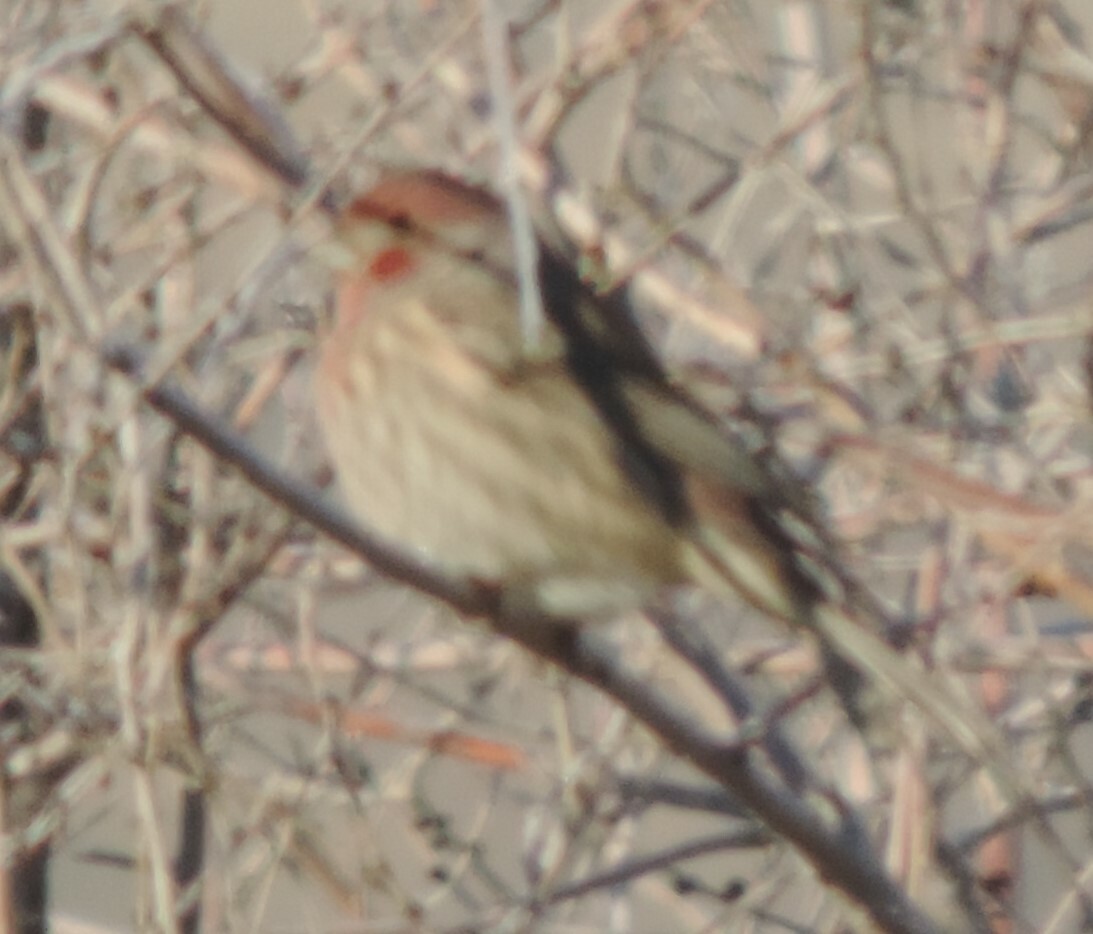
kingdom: Animalia
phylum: Chordata
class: Aves
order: Passeriformes
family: Fringillidae
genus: Haemorhous
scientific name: Haemorhous mexicanus
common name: House finch
